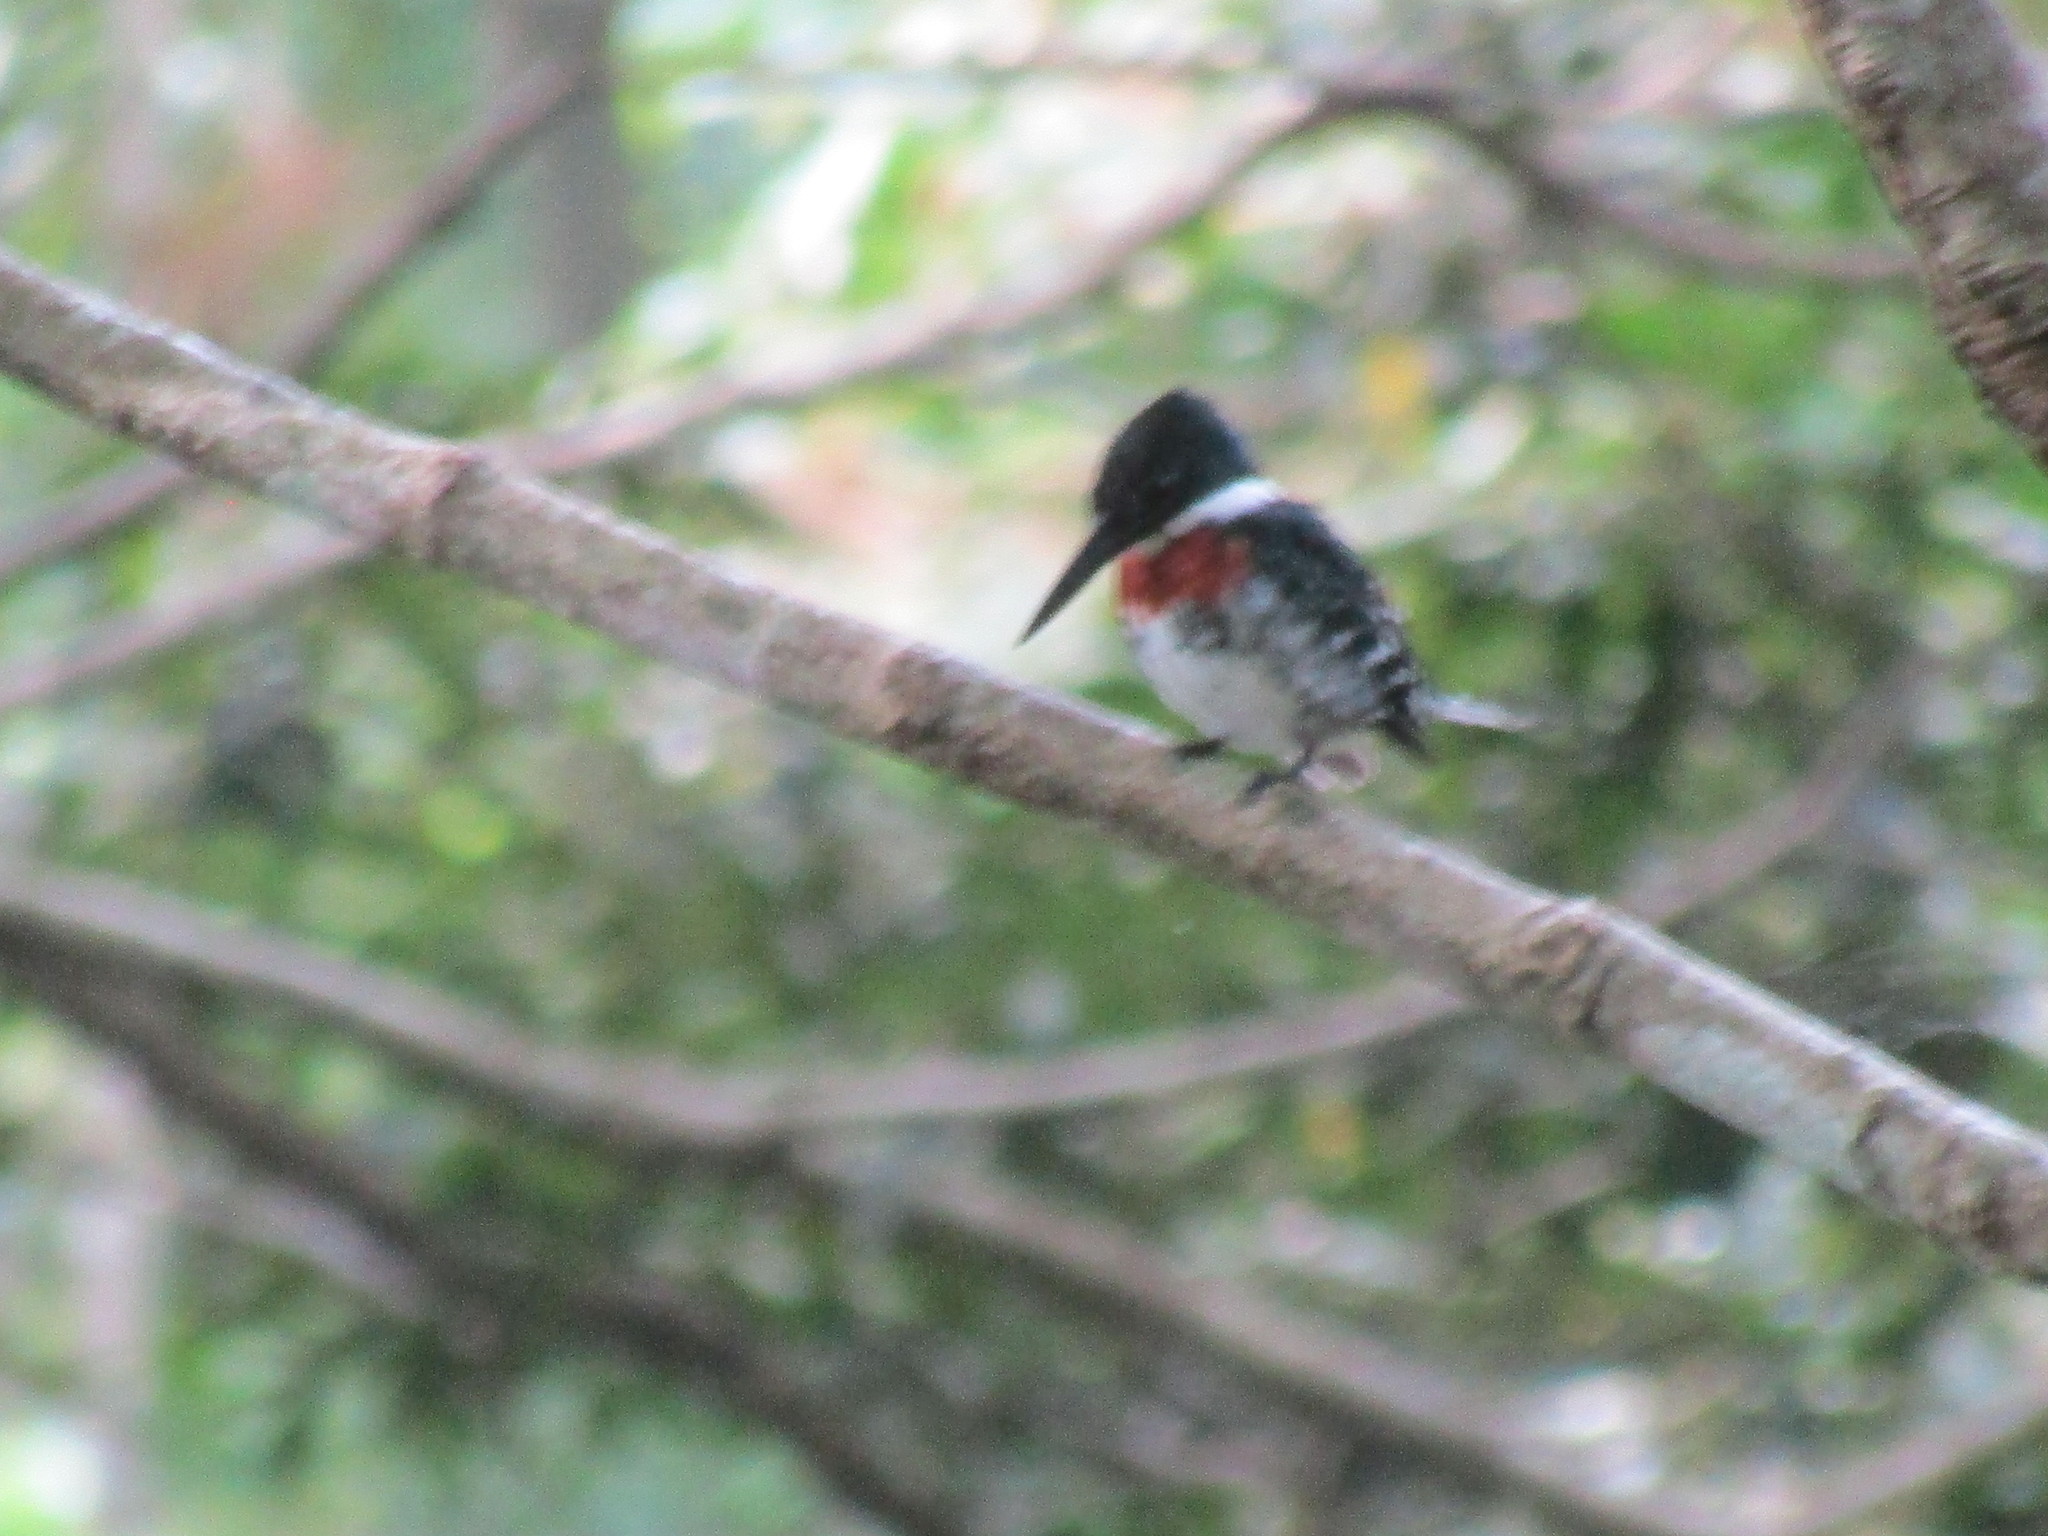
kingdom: Animalia
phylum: Chordata
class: Aves
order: Coraciiformes
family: Alcedinidae
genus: Chloroceryle
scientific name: Chloroceryle americana
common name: Green kingfisher
